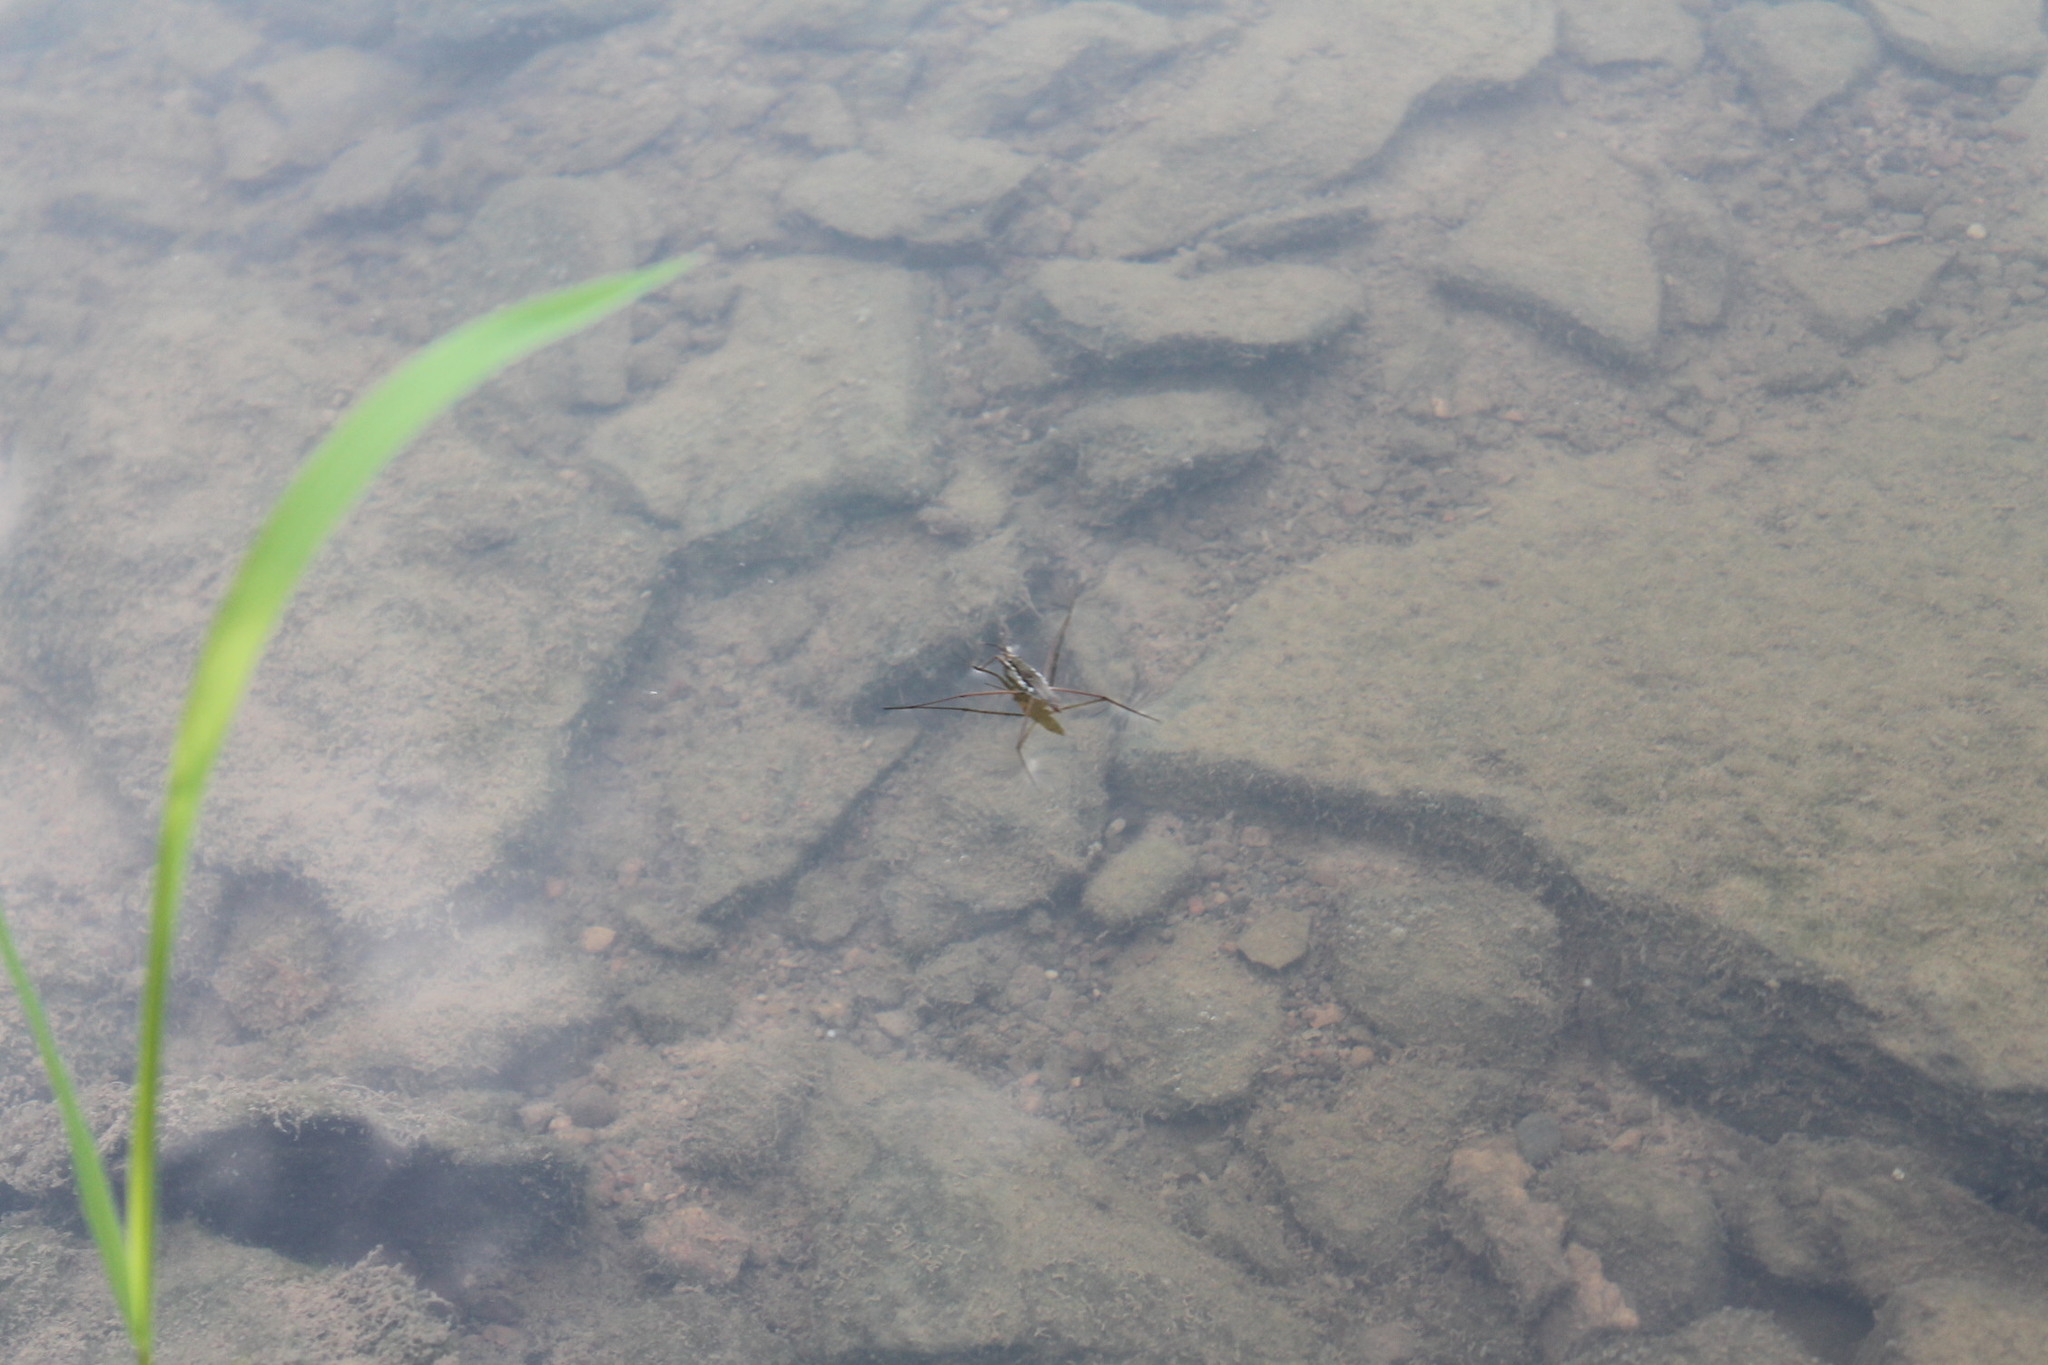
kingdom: Animalia
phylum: Arthropoda
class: Insecta
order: Hemiptera
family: Gerridae
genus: Aquarius
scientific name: Aquarius remigis
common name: Common water strider
